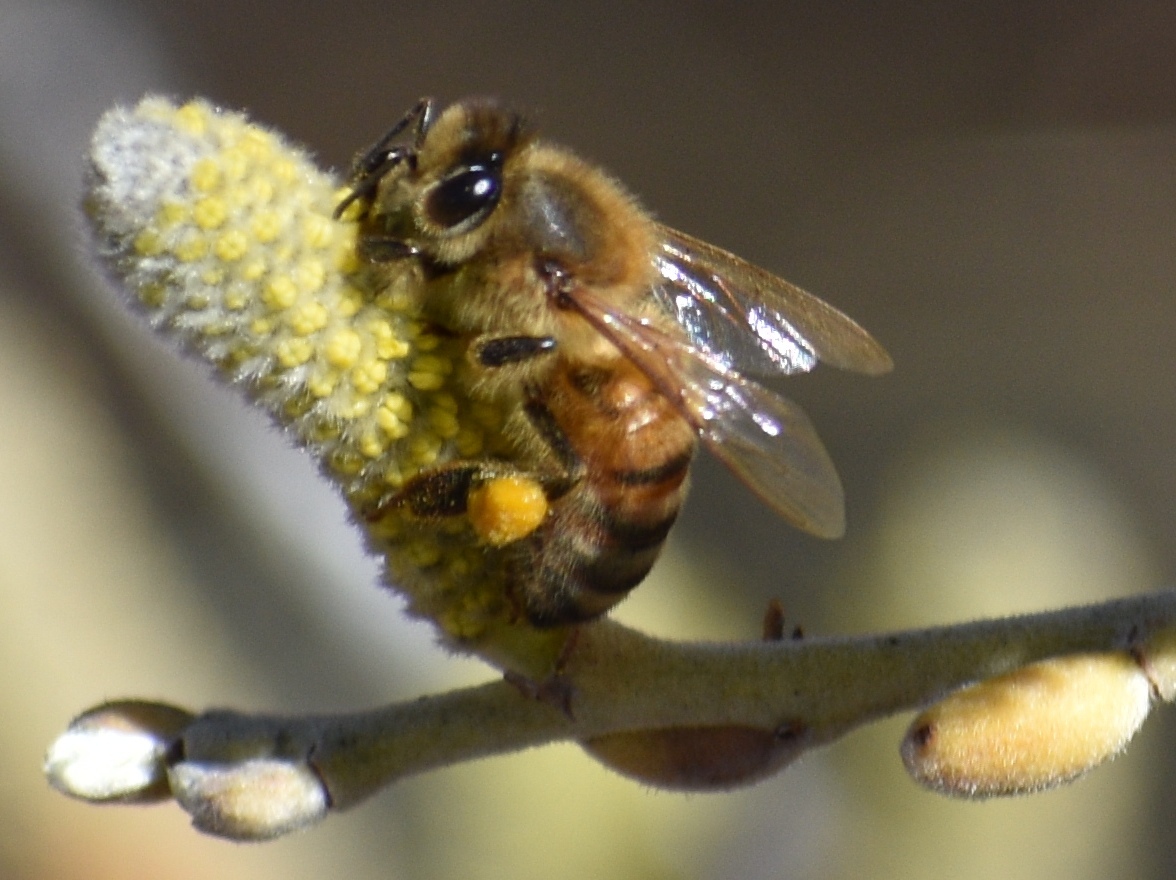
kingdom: Animalia
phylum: Arthropoda
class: Insecta
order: Hymenoptera
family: Apidae
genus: Apis
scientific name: Apis mellifera
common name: Honey bee
